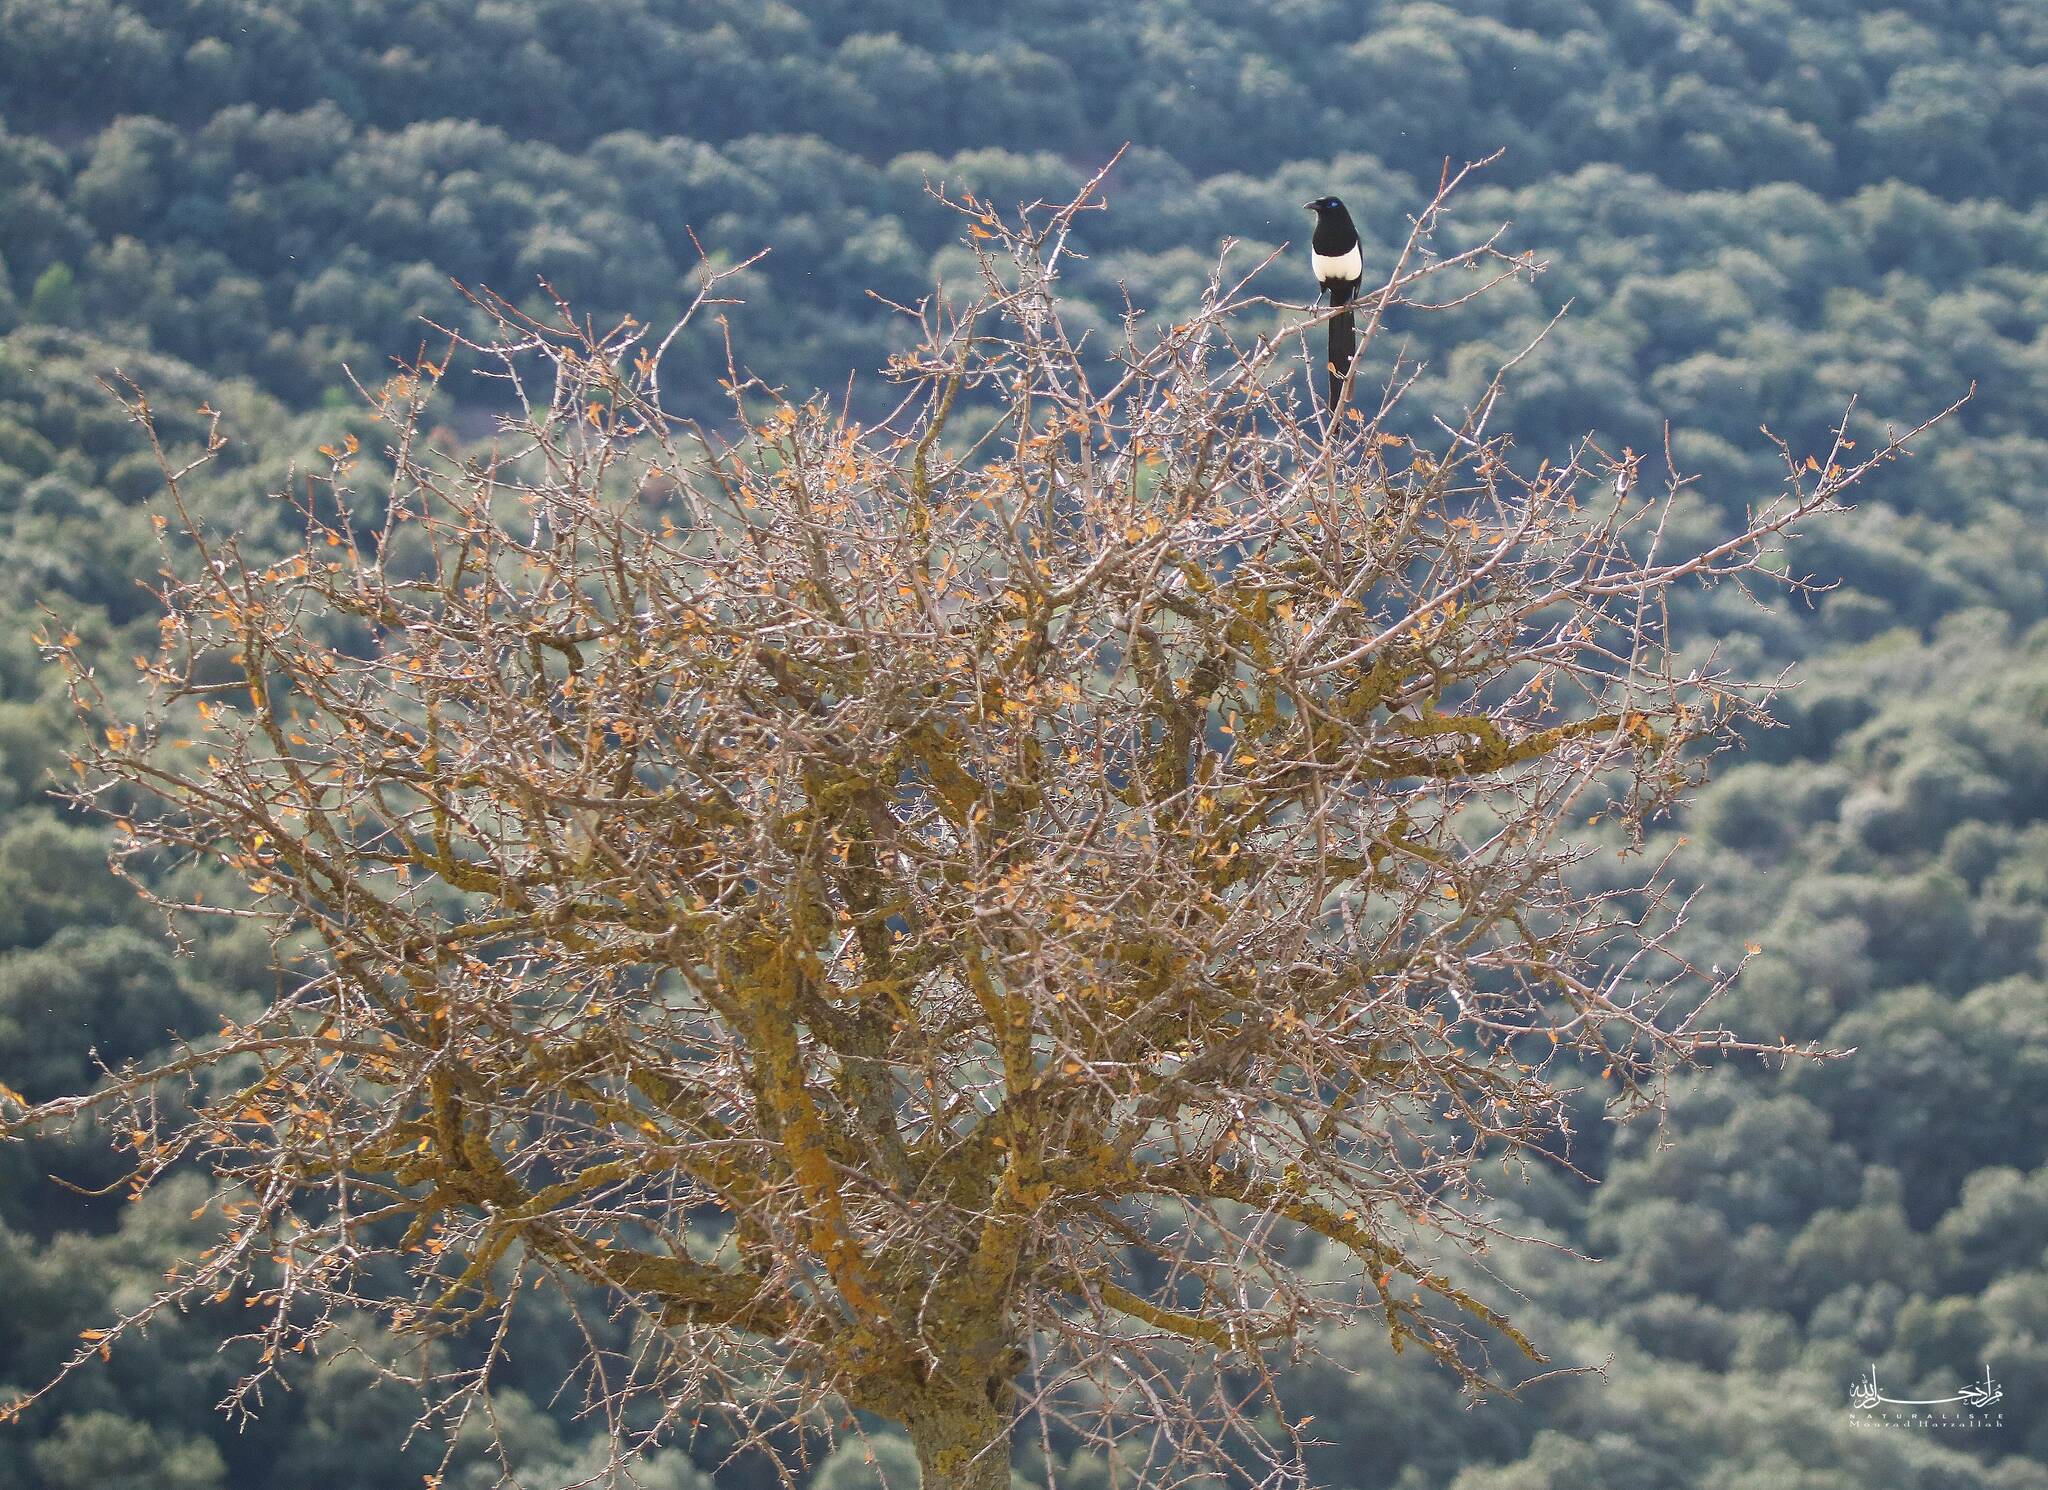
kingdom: Animalia
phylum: Chordata
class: Aves
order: Passeriformes
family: Corvidae
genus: Pica
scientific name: Pica mauritanica
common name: Maghreb magpie
